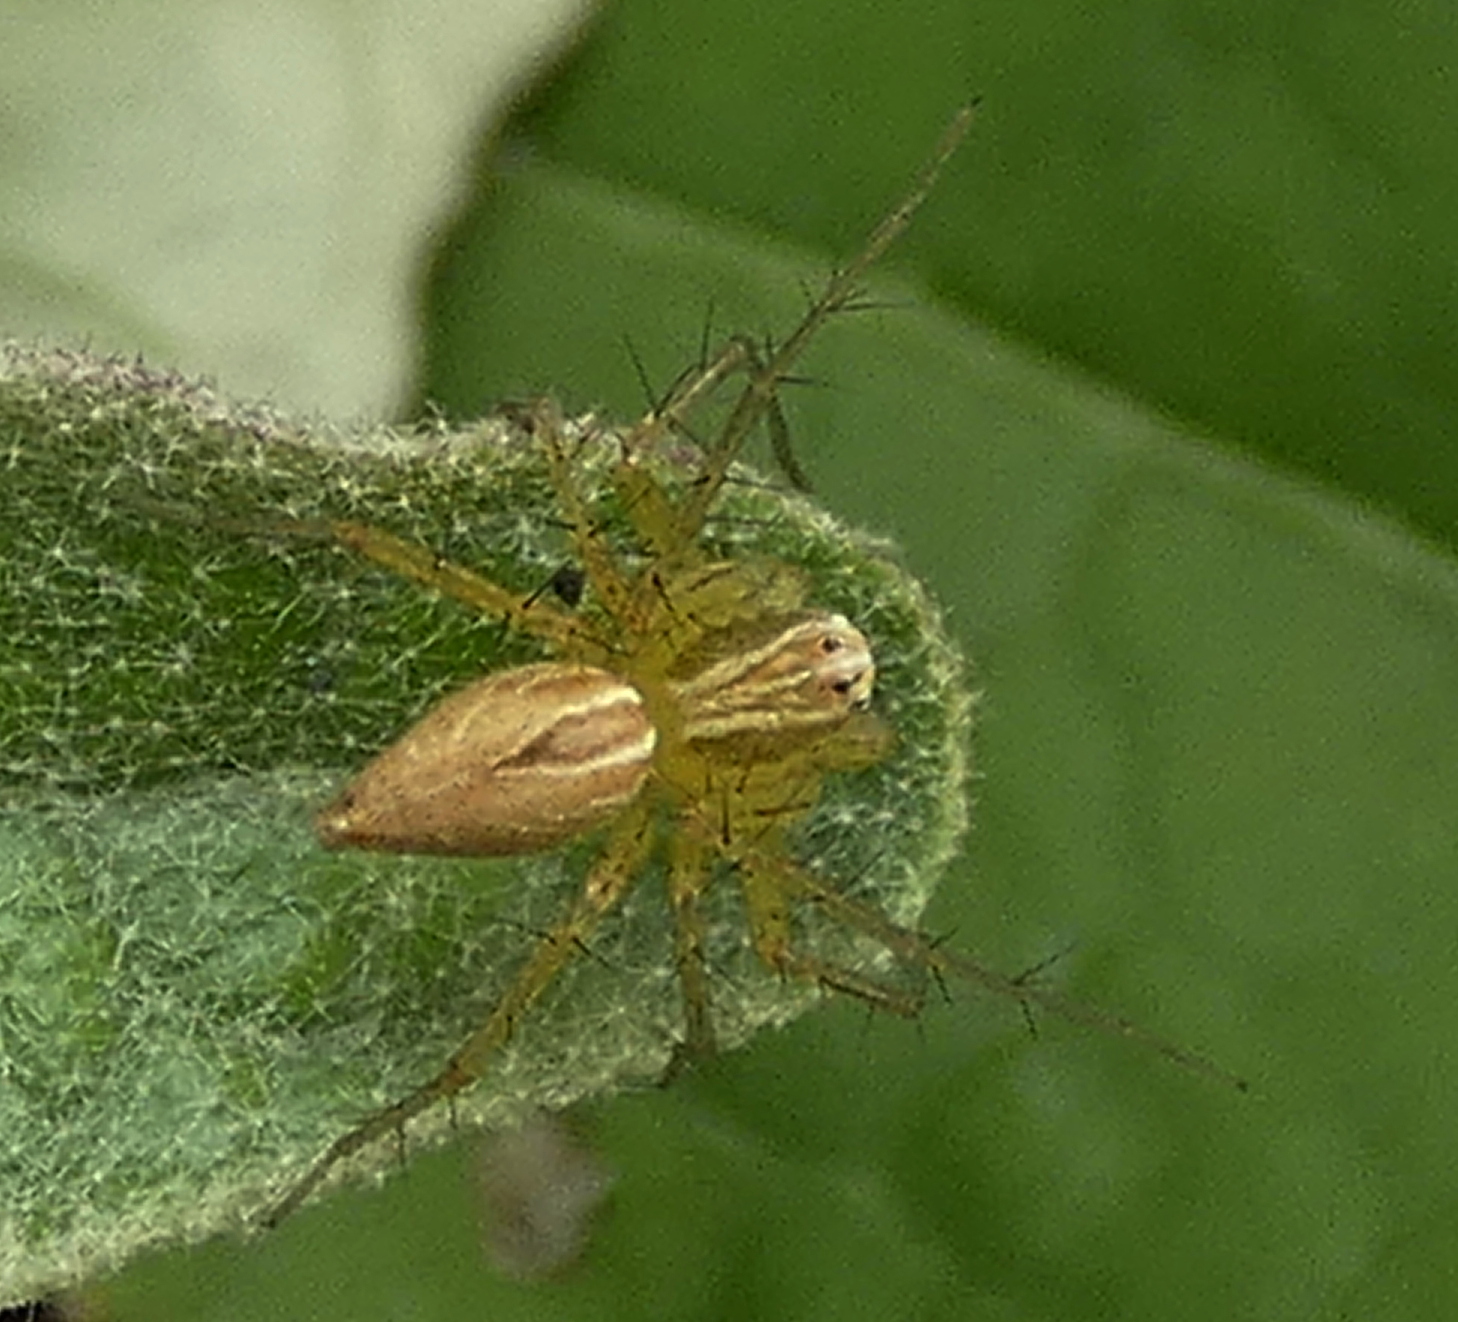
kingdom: Animalia
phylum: Arthropoda
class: Arachnida
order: Araneae
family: Oxyopidae
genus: Oxyopes
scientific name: Oxyopes salticus
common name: Lynx spiders
